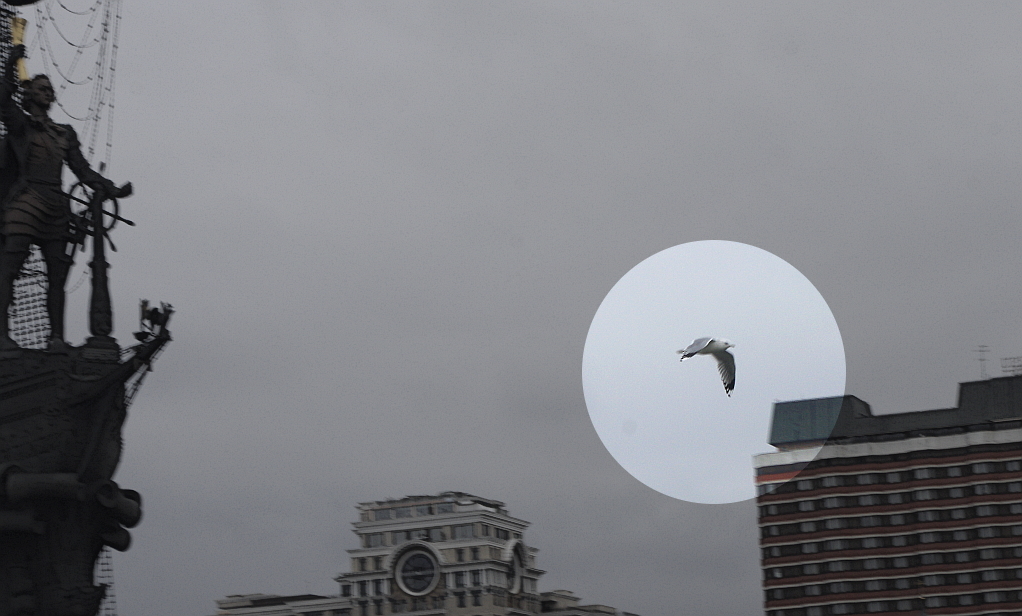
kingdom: Animalia
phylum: Chordata
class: Aves
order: Charadriiformes
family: Laridae
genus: Larus
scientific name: Larus canus
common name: Mew gull
